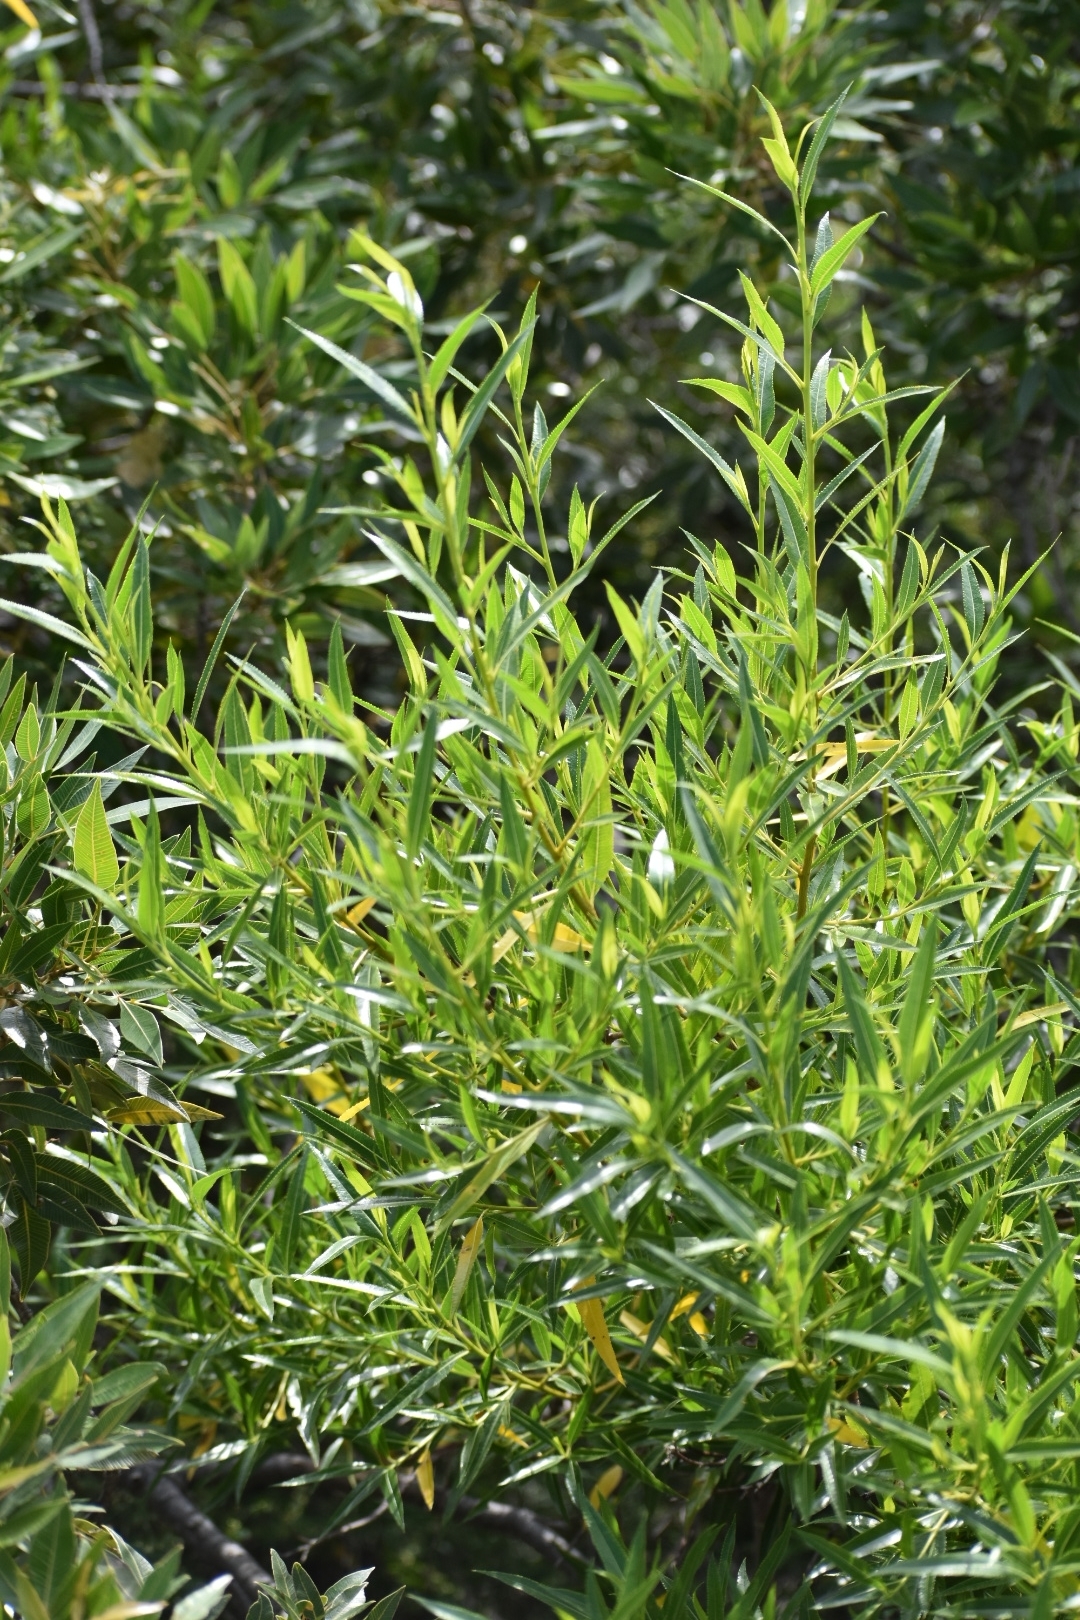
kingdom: Plantae
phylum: Tracheophyta
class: Magnoliopsida
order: Rosales
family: Rosaceae
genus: Kageneckia
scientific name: Kageneckia lanceolata
